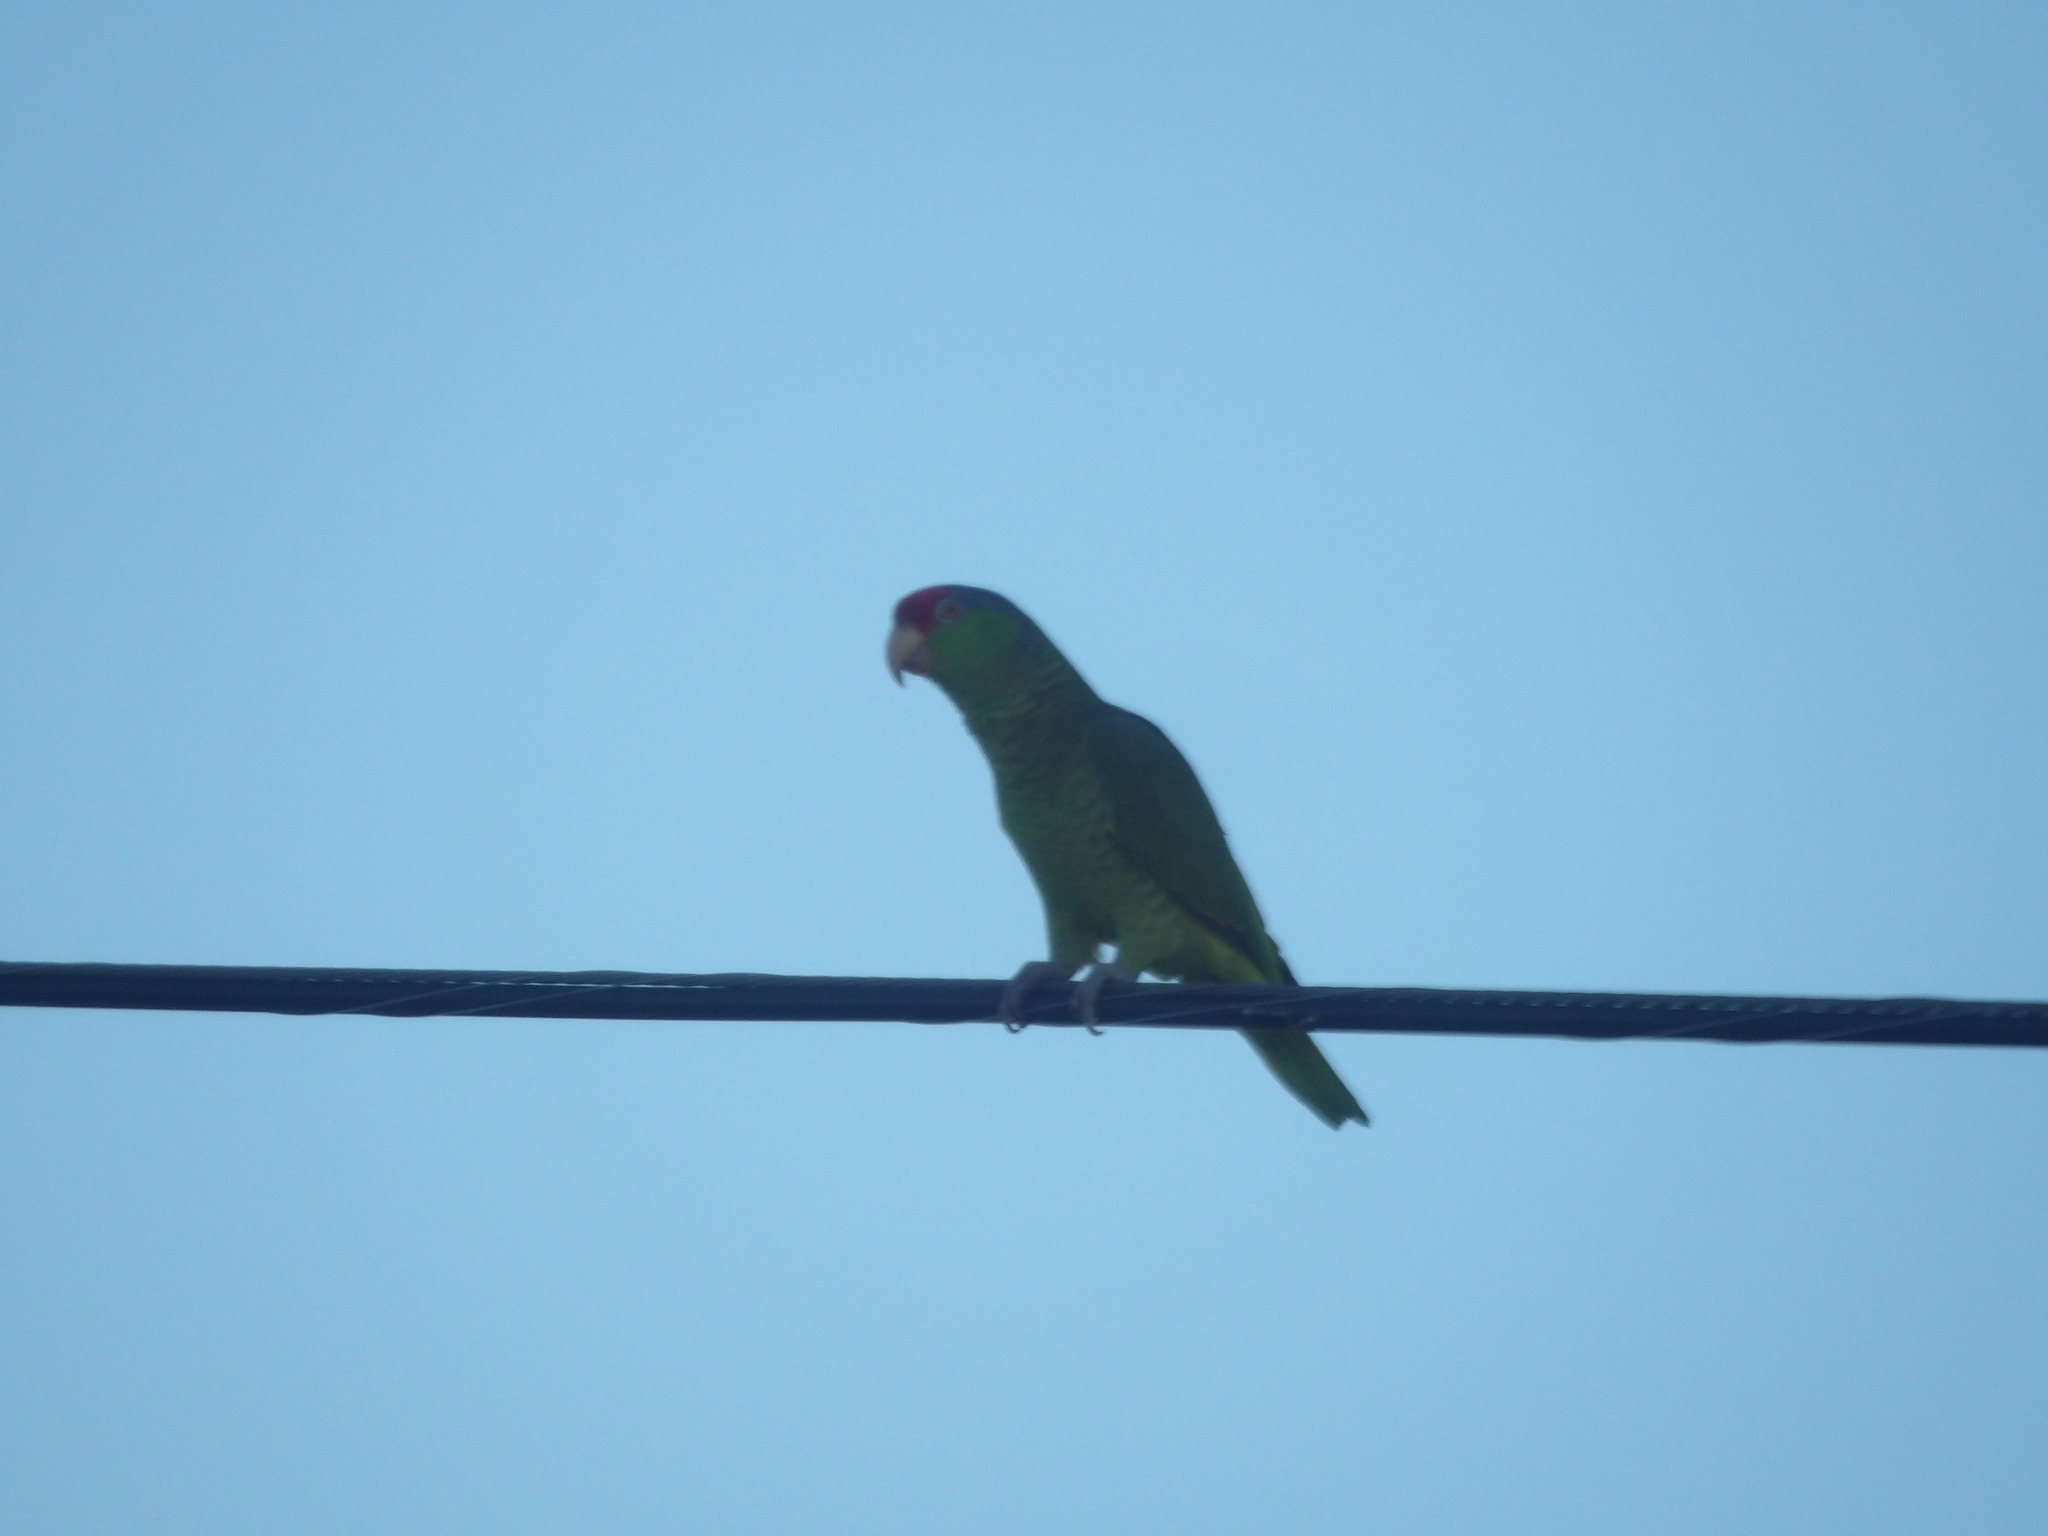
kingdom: Animalia
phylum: Chordata
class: Aves
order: Psittaciformes
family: Psittacidae
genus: Amazona
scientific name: Amazona viridigenalis
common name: Red-crowned amazon
